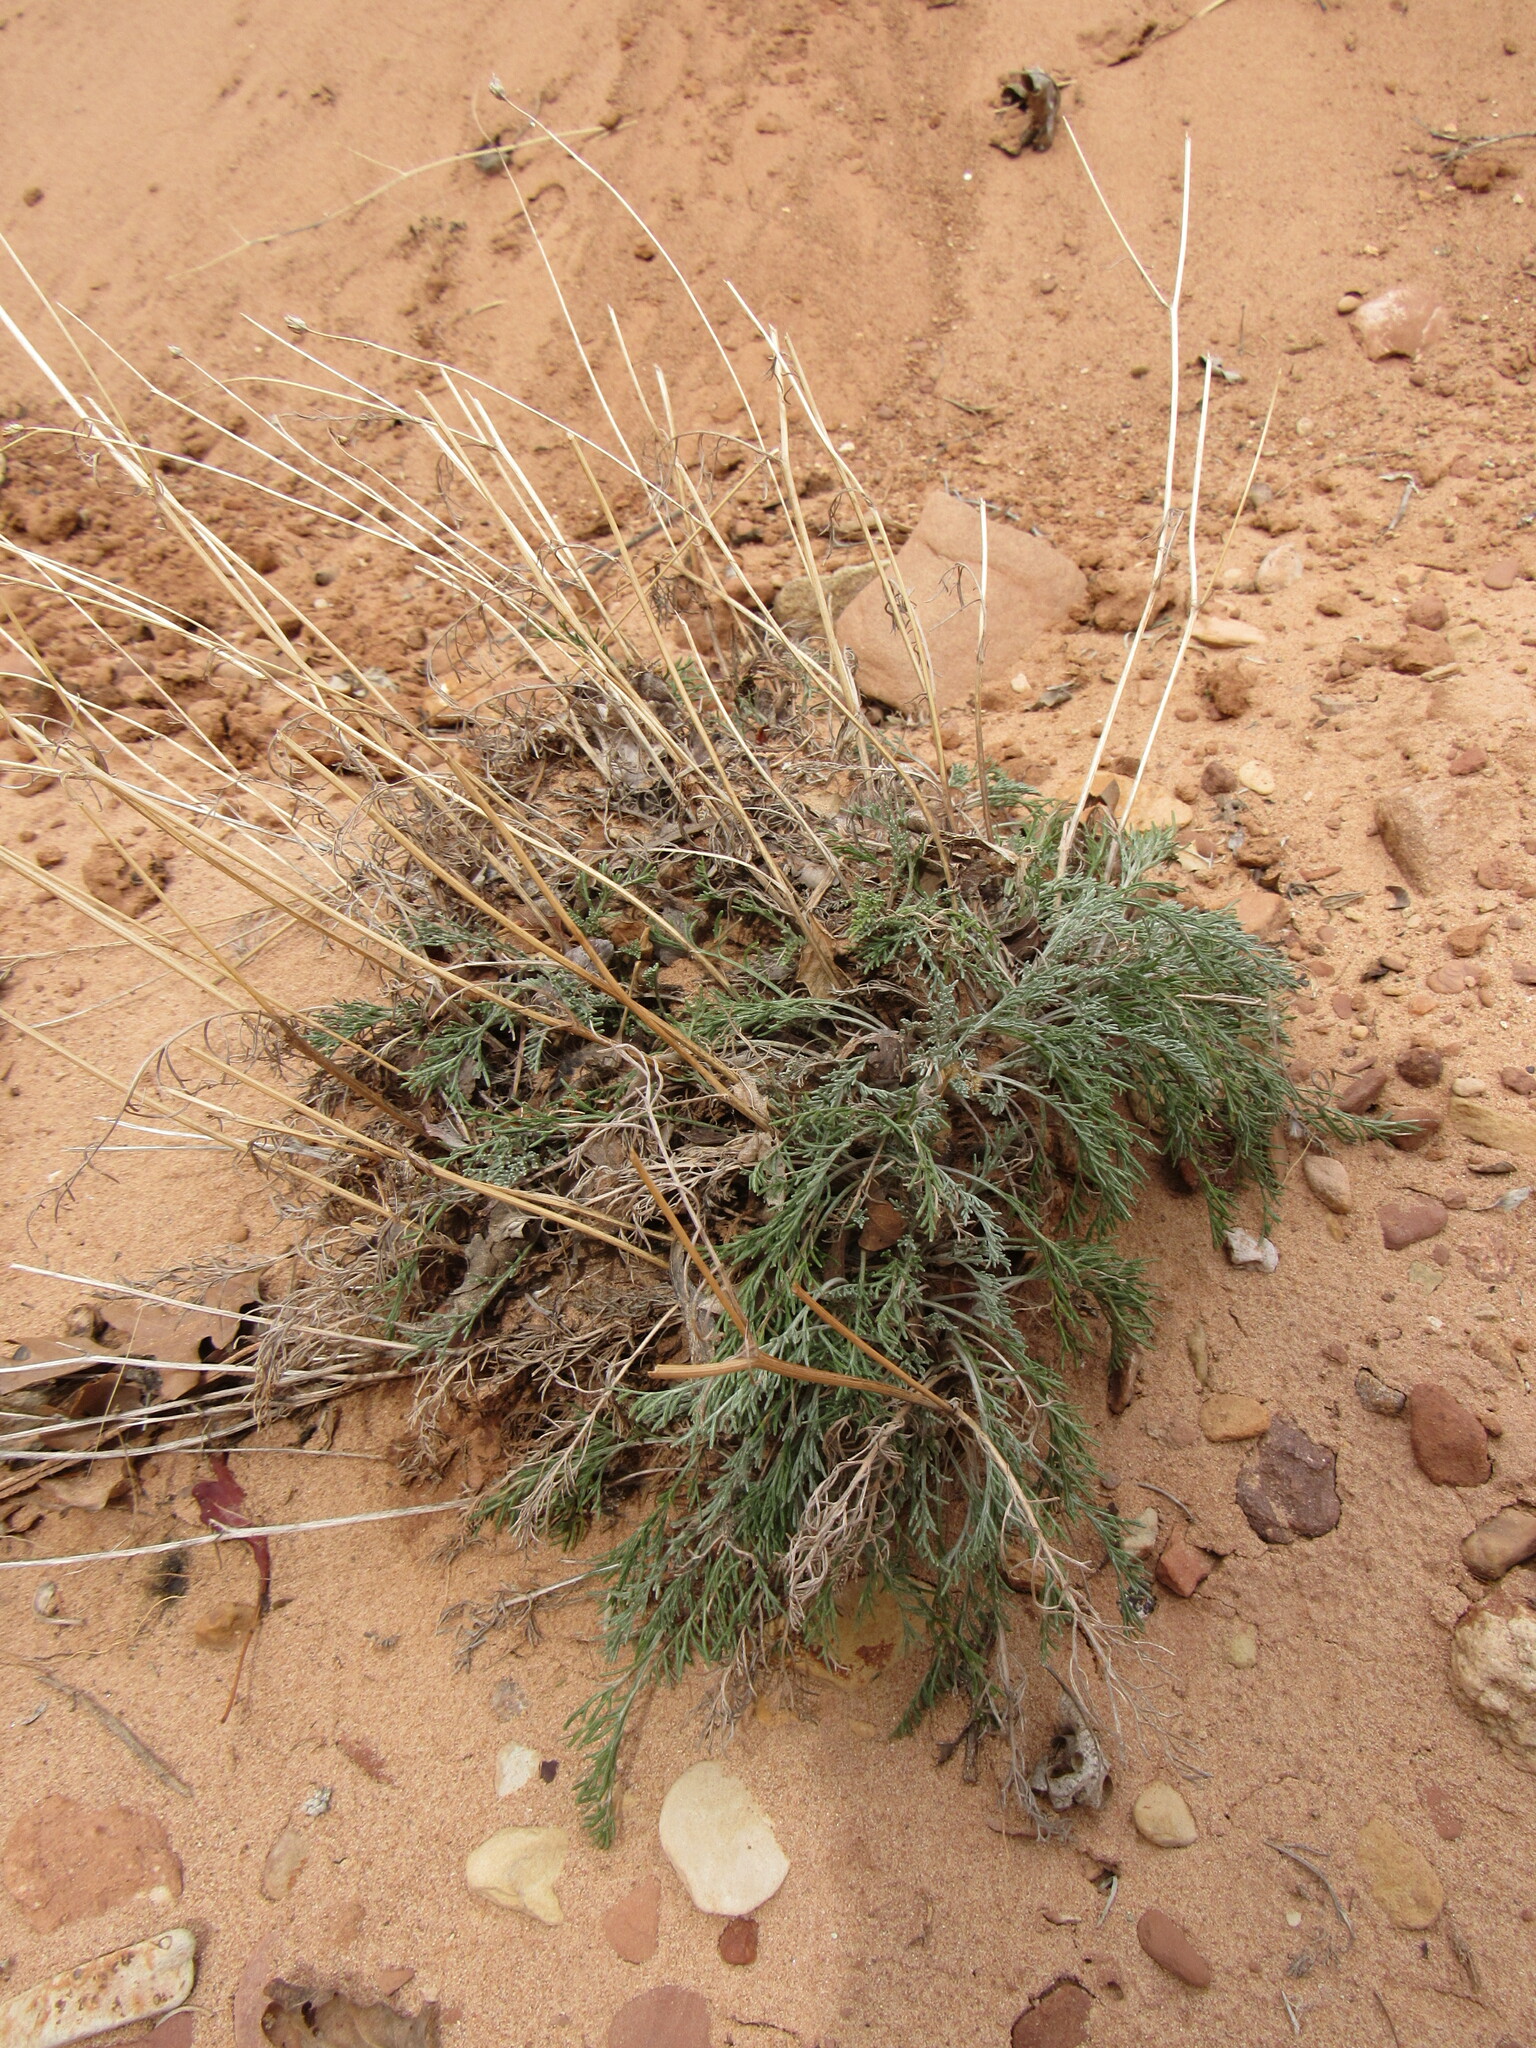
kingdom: Plantae
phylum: Tracheophyta
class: Magnoliopsida
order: Asterales
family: Asteraceae
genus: Hymenopappus
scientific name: Hymenopappus filifolius
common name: Columbia cutleaf
